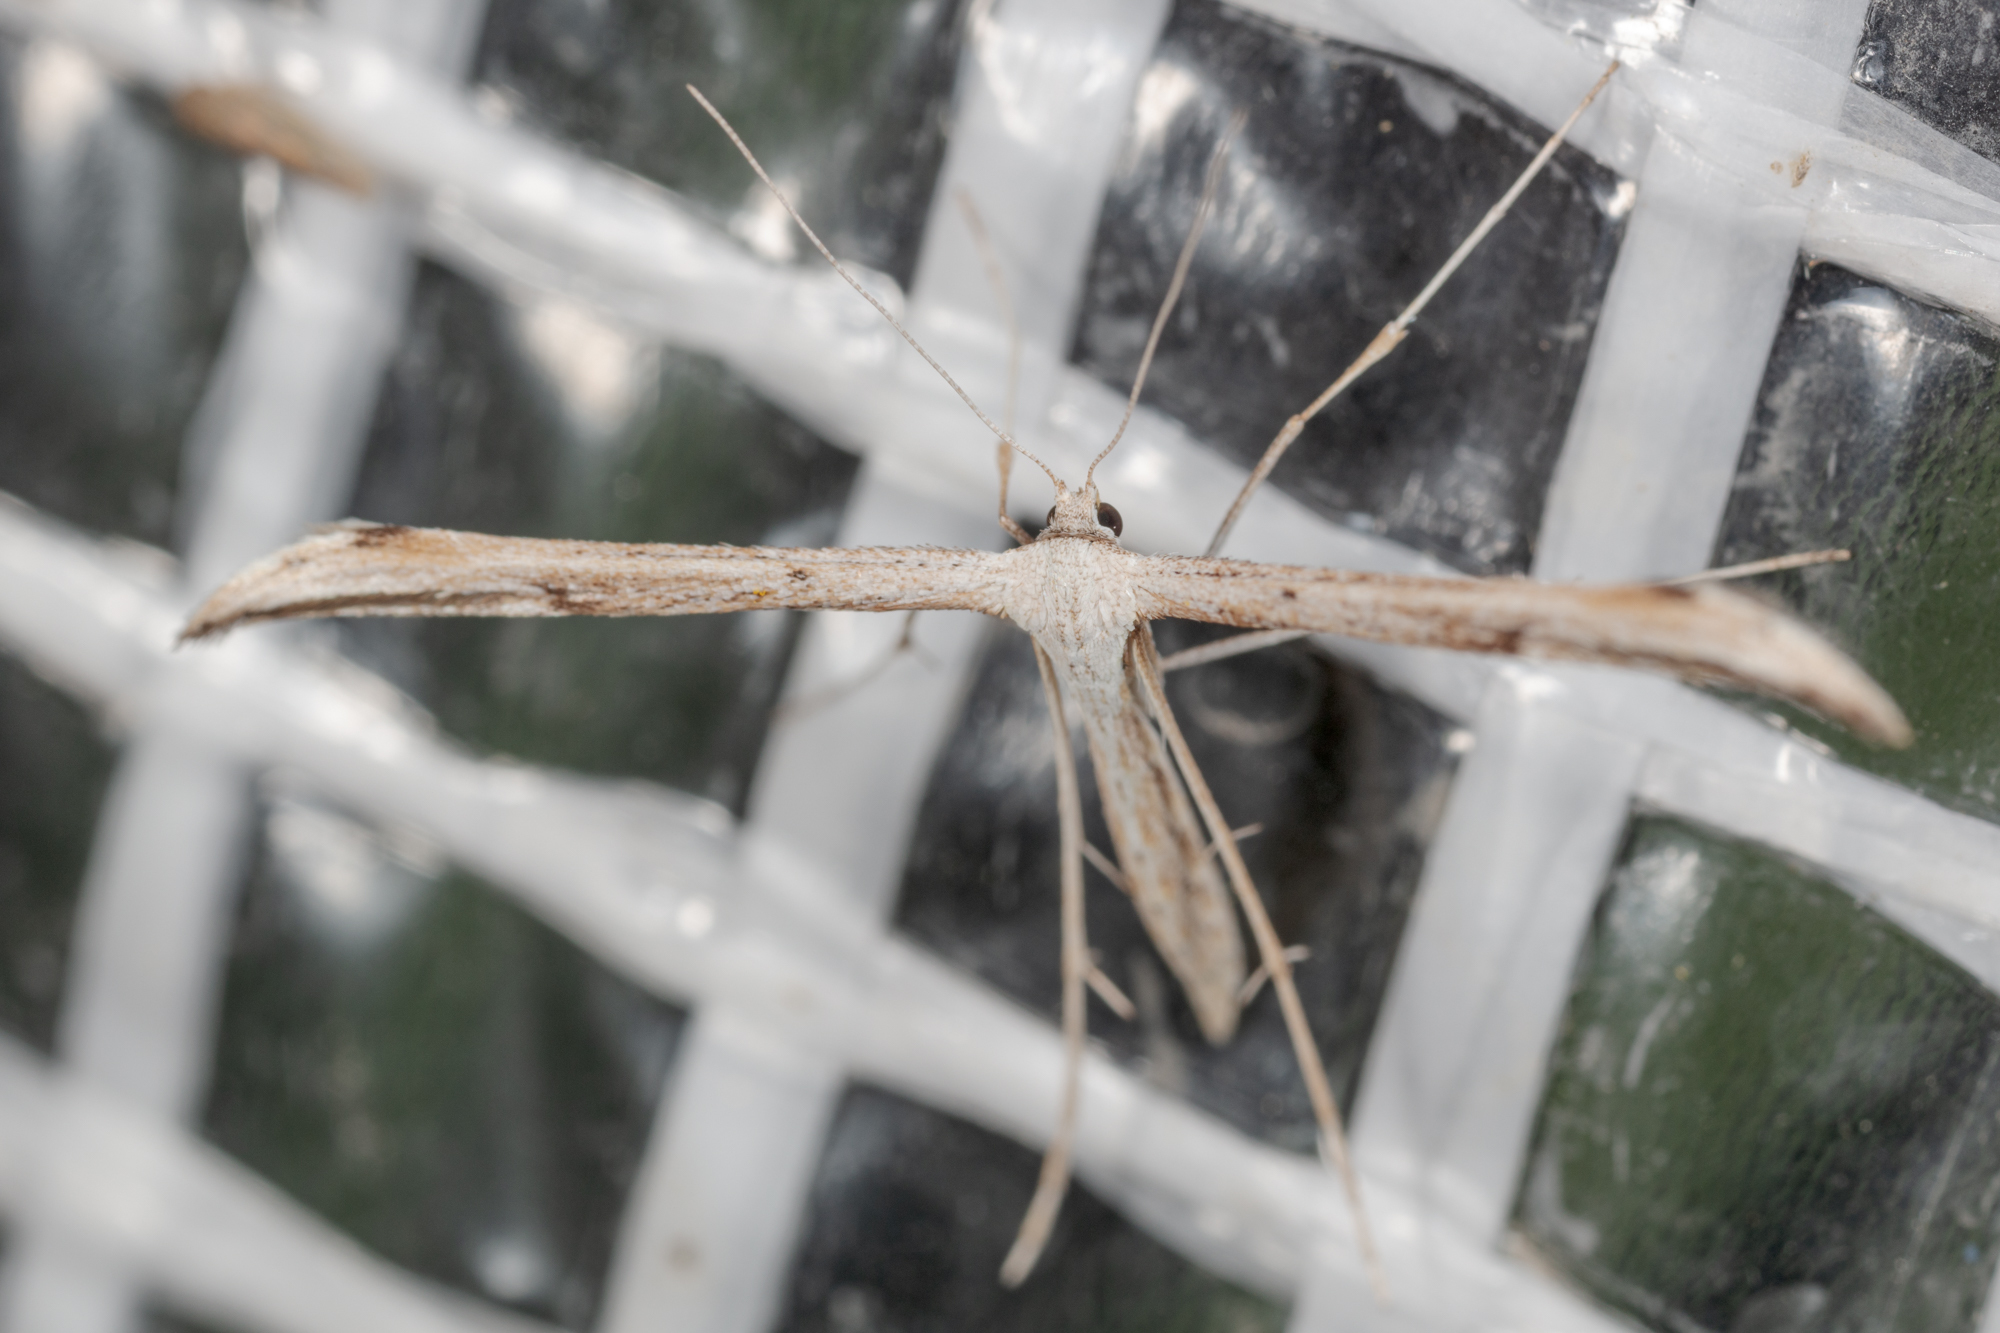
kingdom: Animalia
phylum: Arthropoda
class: Insecta
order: Lepidoptera
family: Pterophoridae
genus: Emmelina
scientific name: Emmelina monodactyla
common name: Common plume
